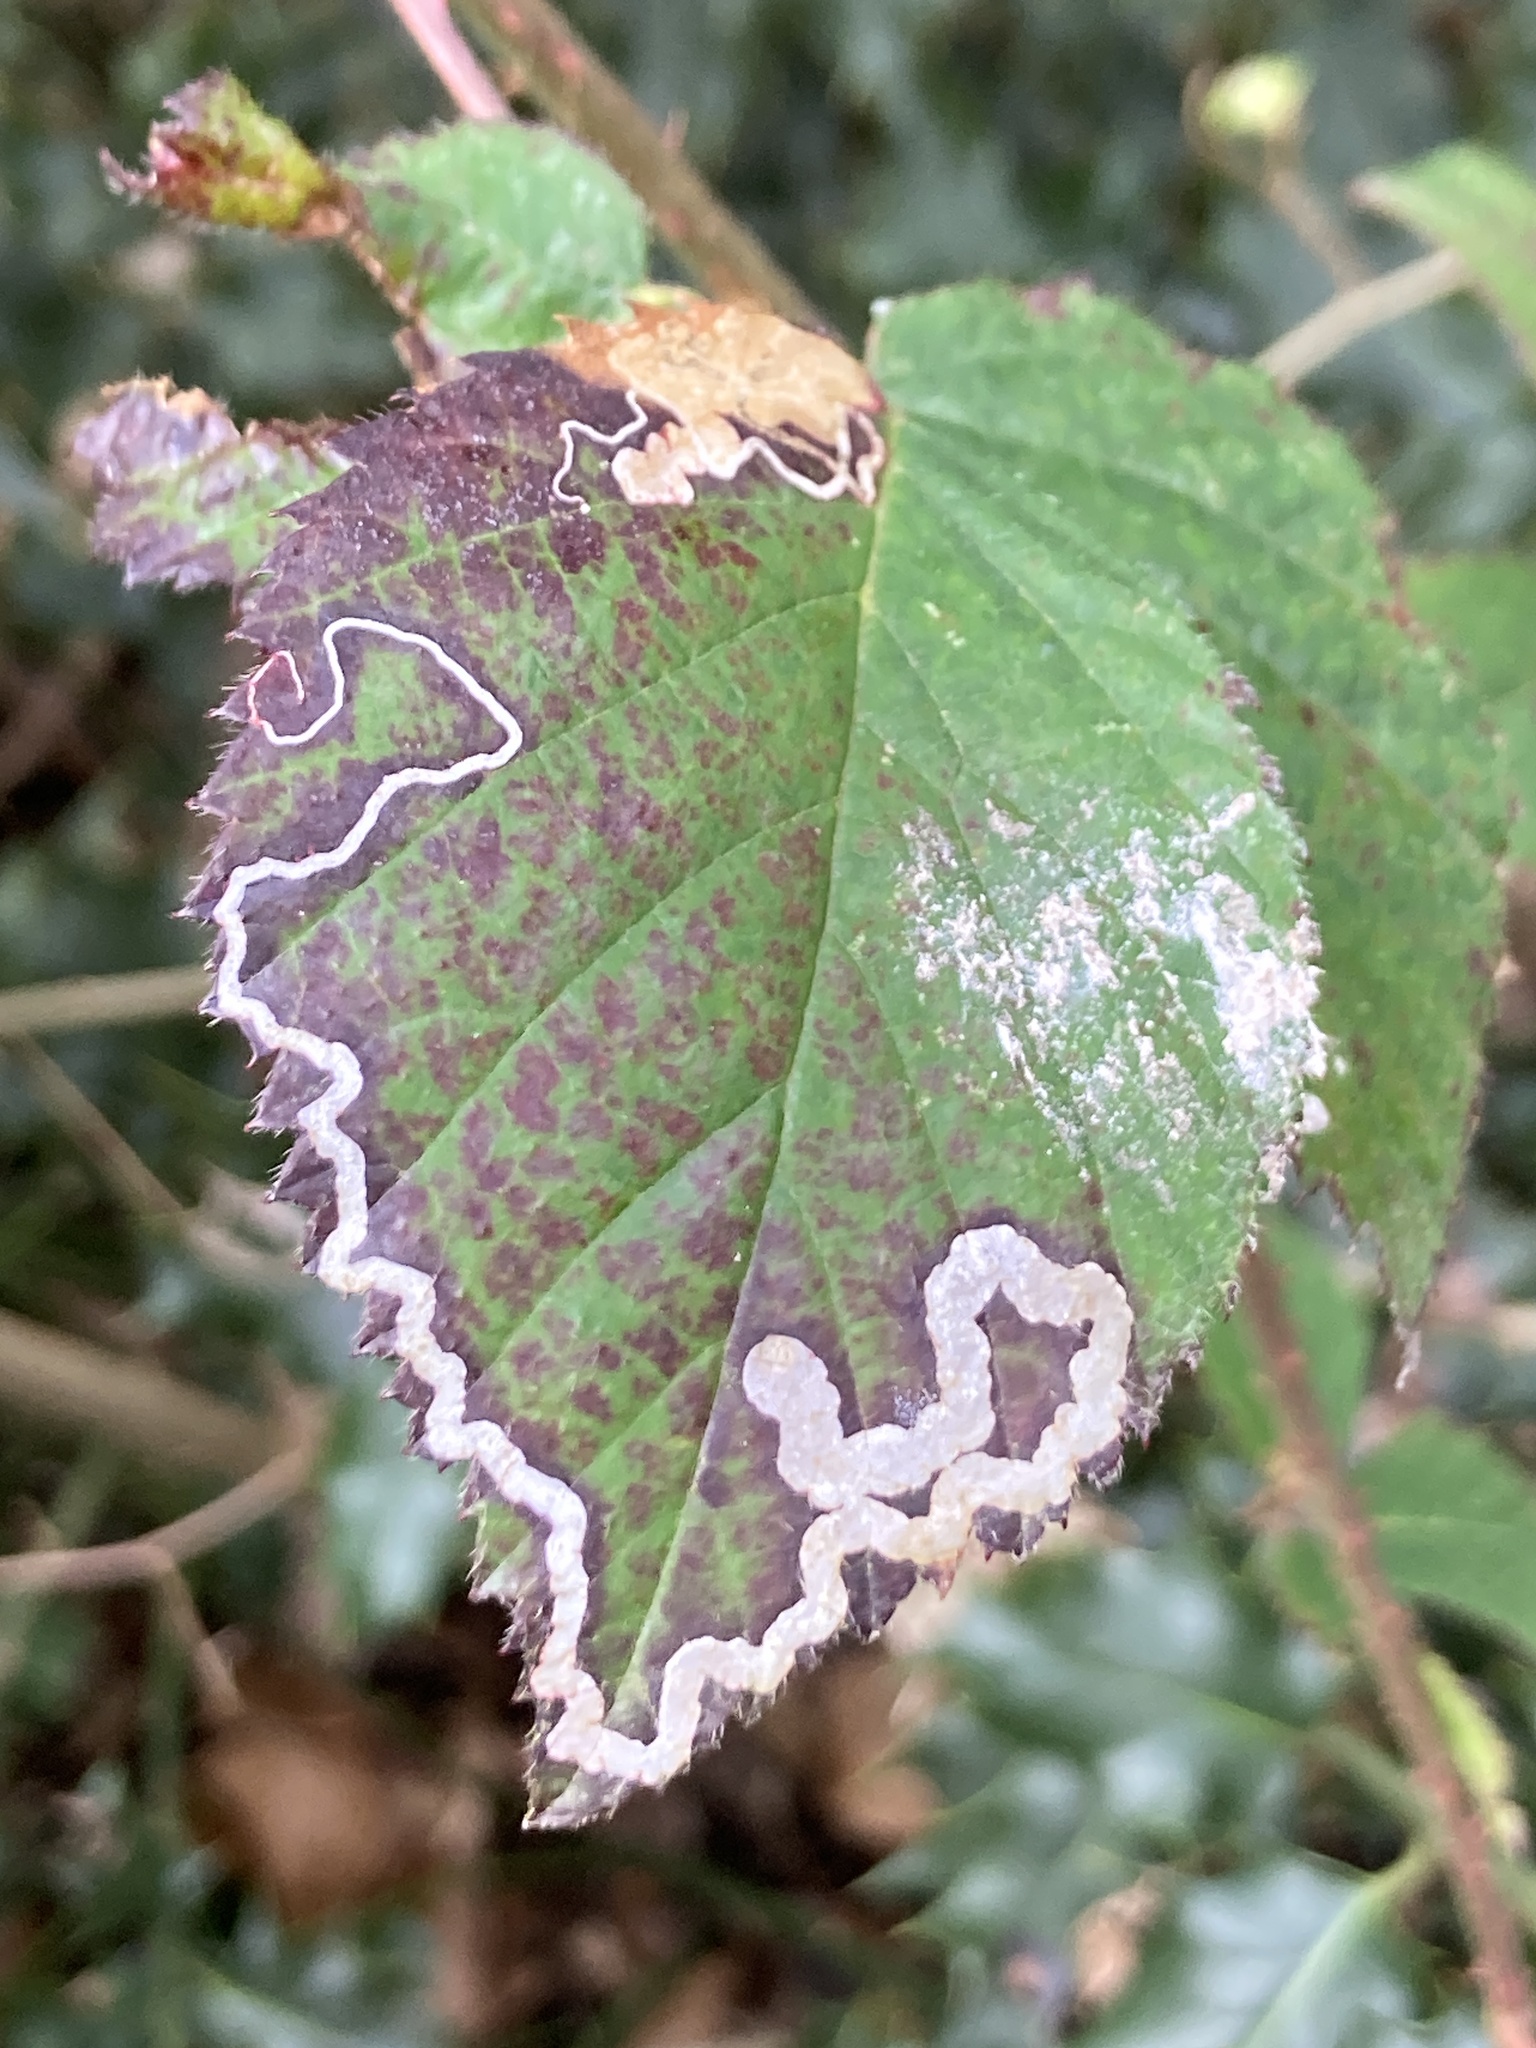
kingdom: Animalia
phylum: Arthropoda
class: Insecta
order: Lepidoptera
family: Nepticulidae
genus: Stigmella
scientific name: Stigmella aurella
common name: Golden pigmy
